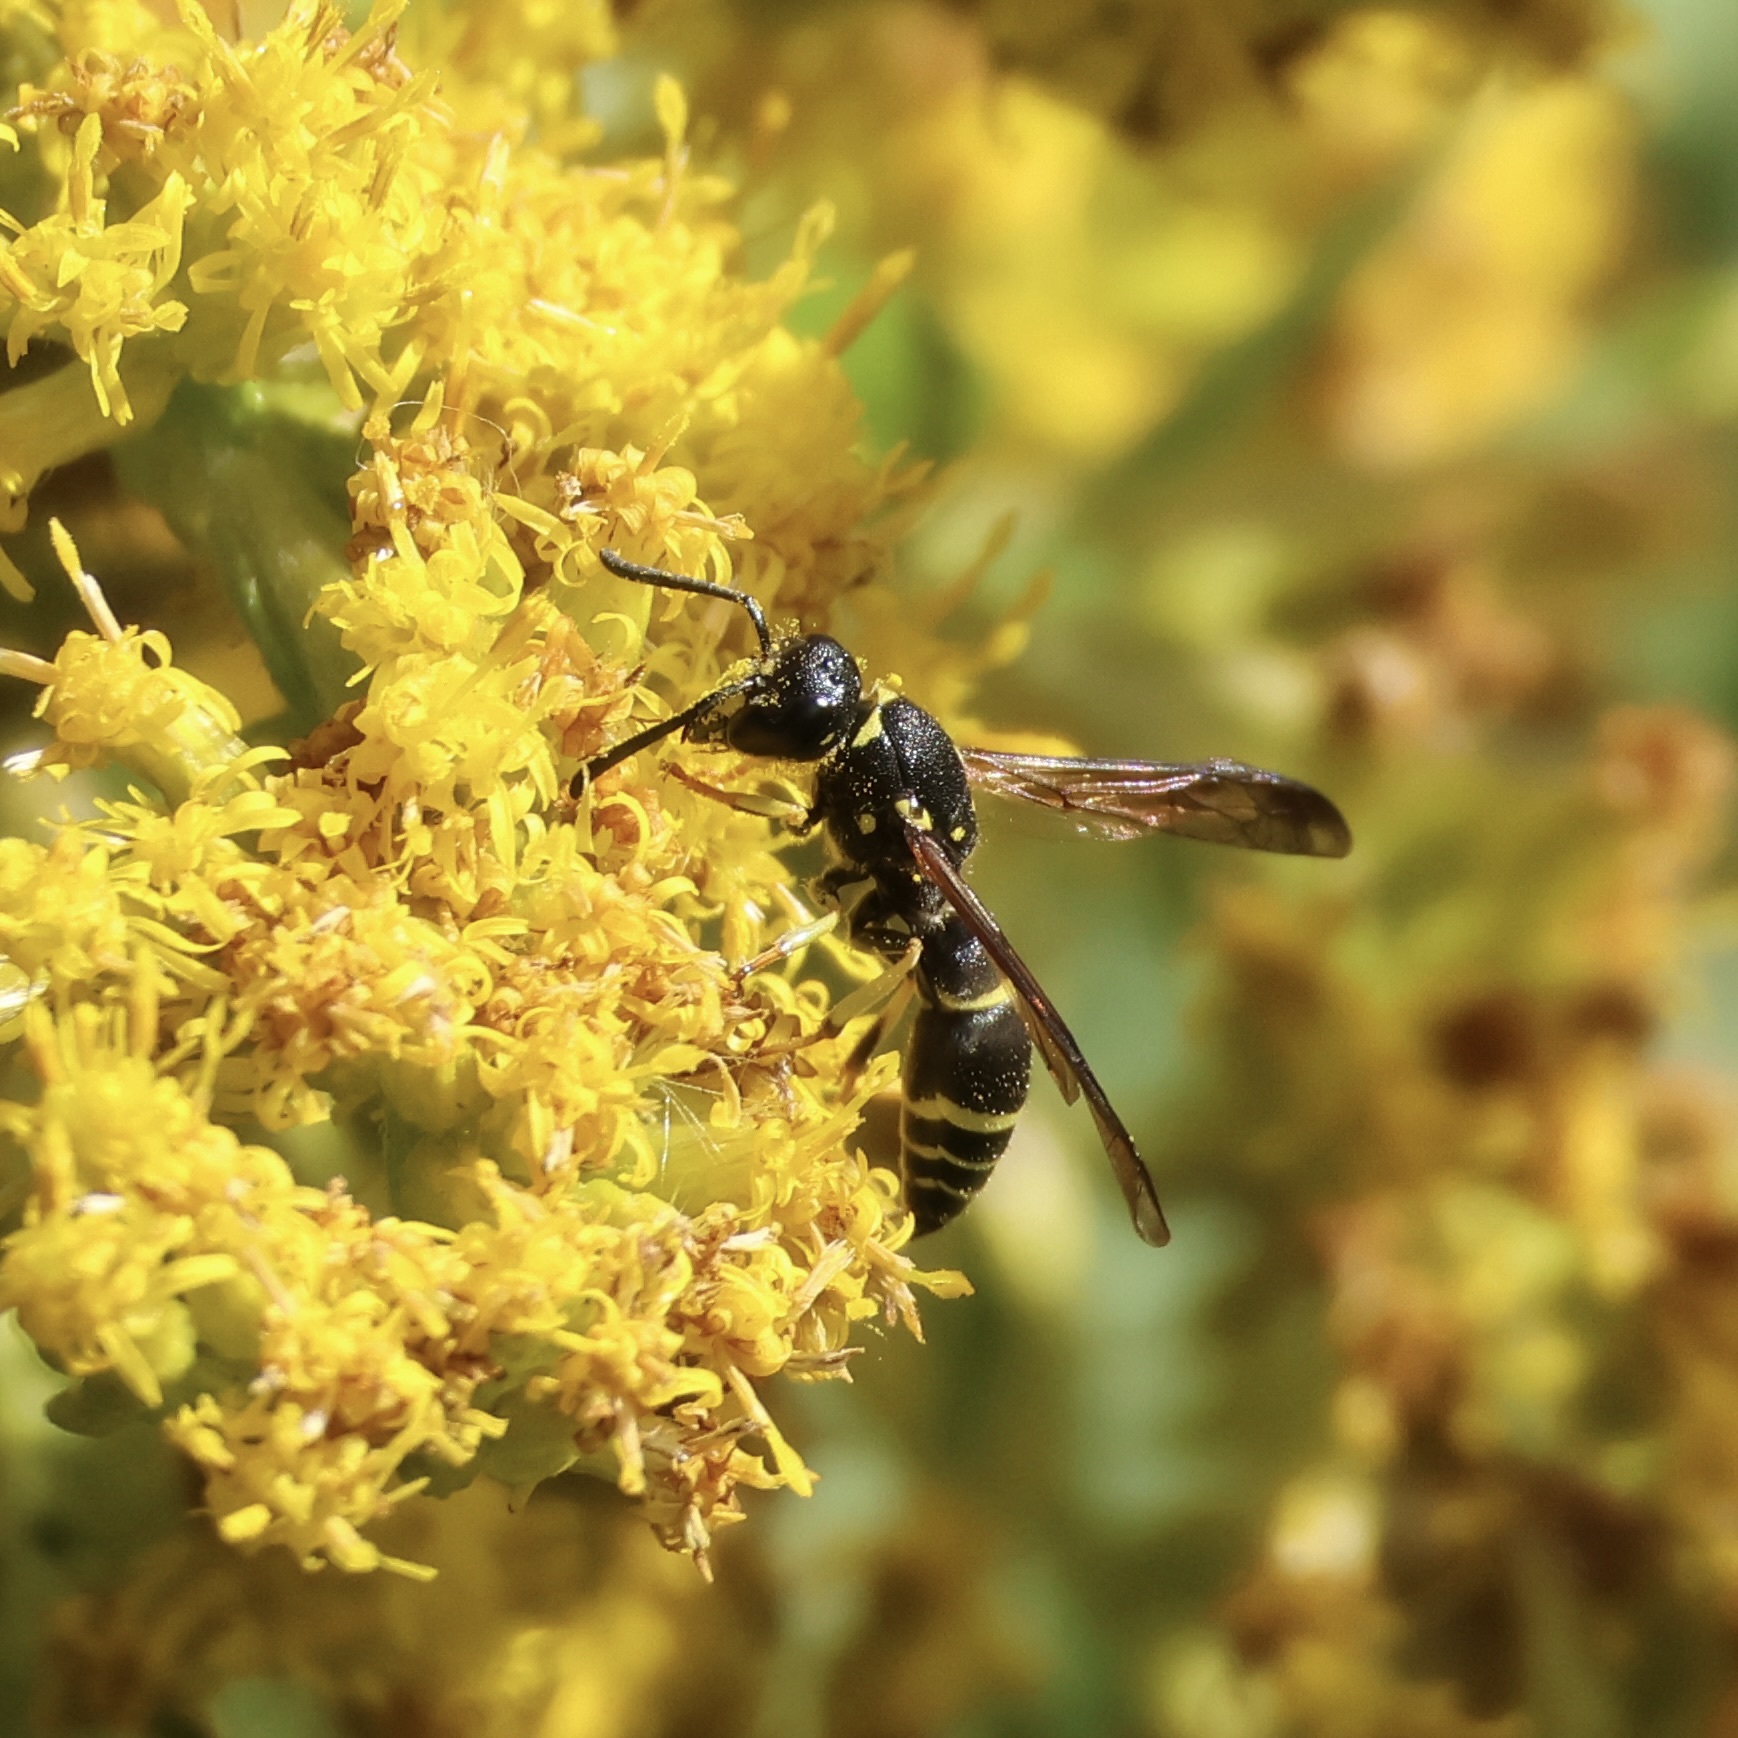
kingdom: Animalia
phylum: Arthropoda
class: Insecta
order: Hymenoptera
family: Vespidae
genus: Ancistrocerus
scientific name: Ancistrocerus adiabatus
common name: Bramble mason wasp
